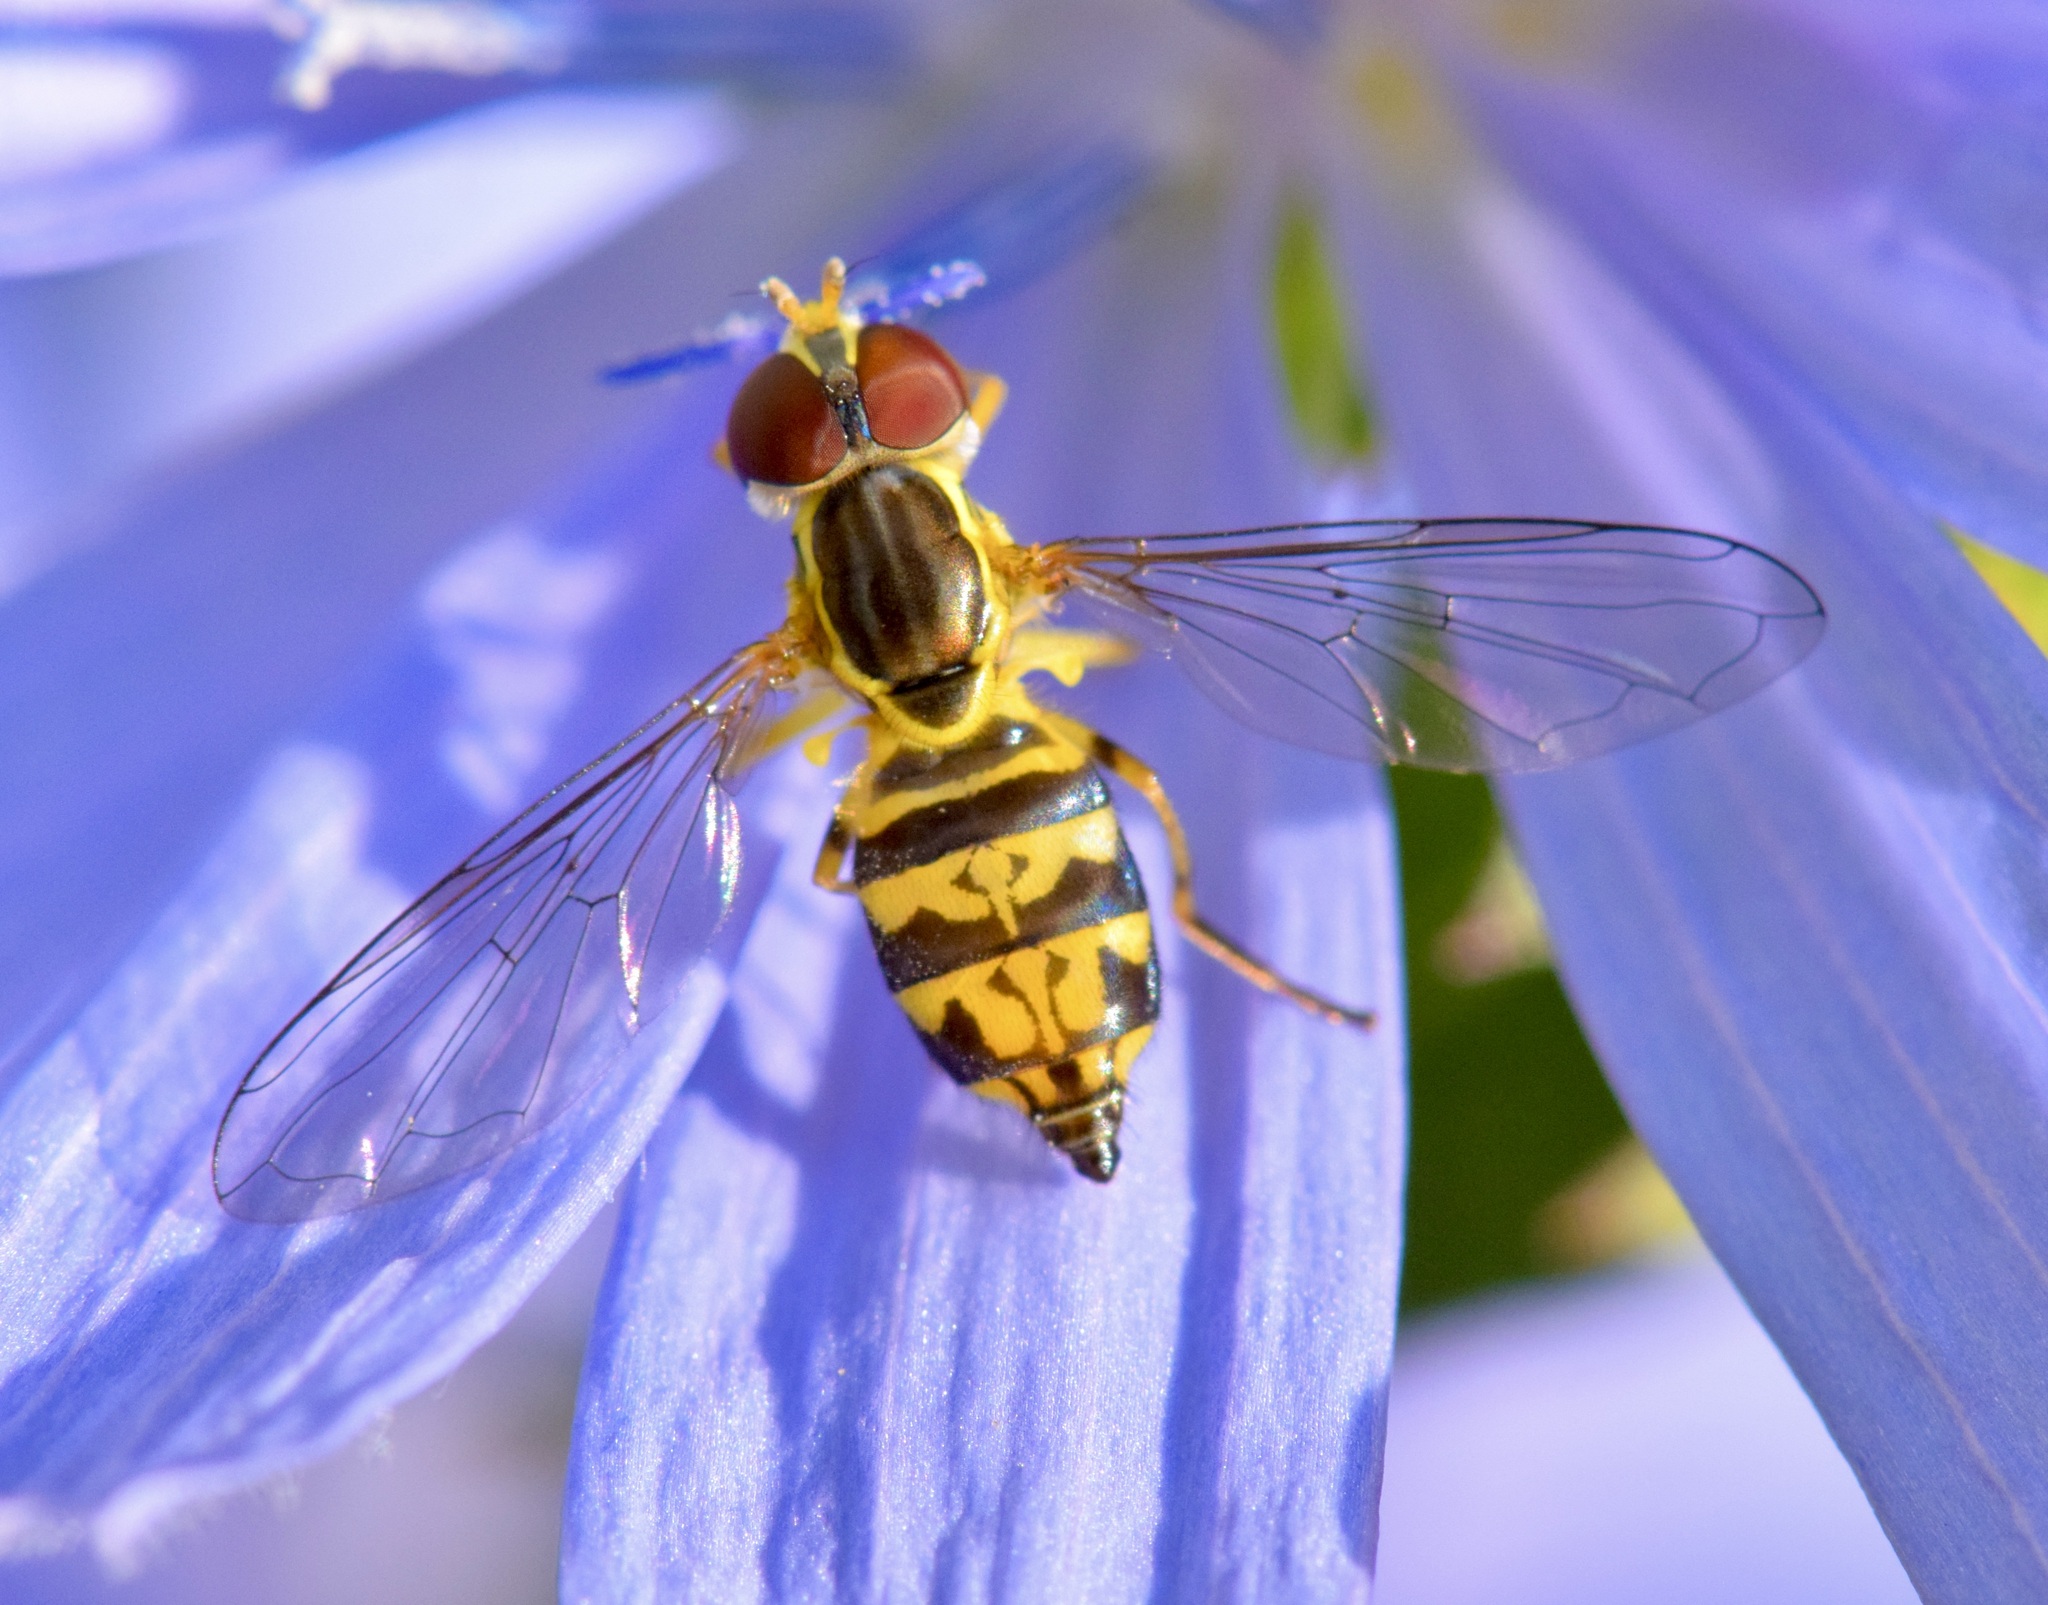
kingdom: Animalia
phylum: Arthropoda
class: Insecta
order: Diptera
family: Syrphidae
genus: Toxomerus
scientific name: Toxomerus geminatus
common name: Eastern calligrapher
